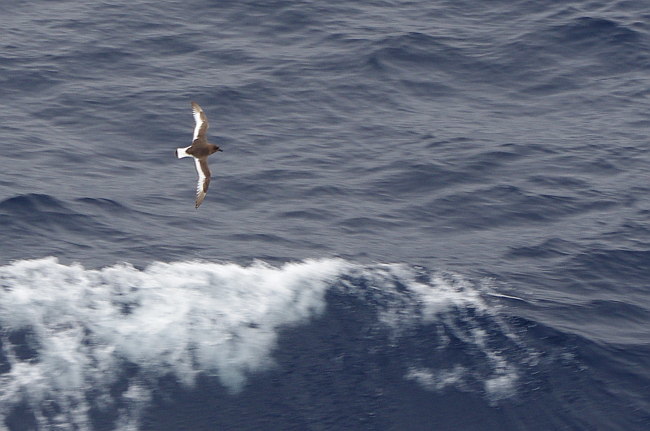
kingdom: Animalia
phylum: Chordata
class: Aves
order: Procellariiformes
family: Procellariidae
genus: Thalassoica
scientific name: Thalassoica antarctica
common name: Antarctic petrel
